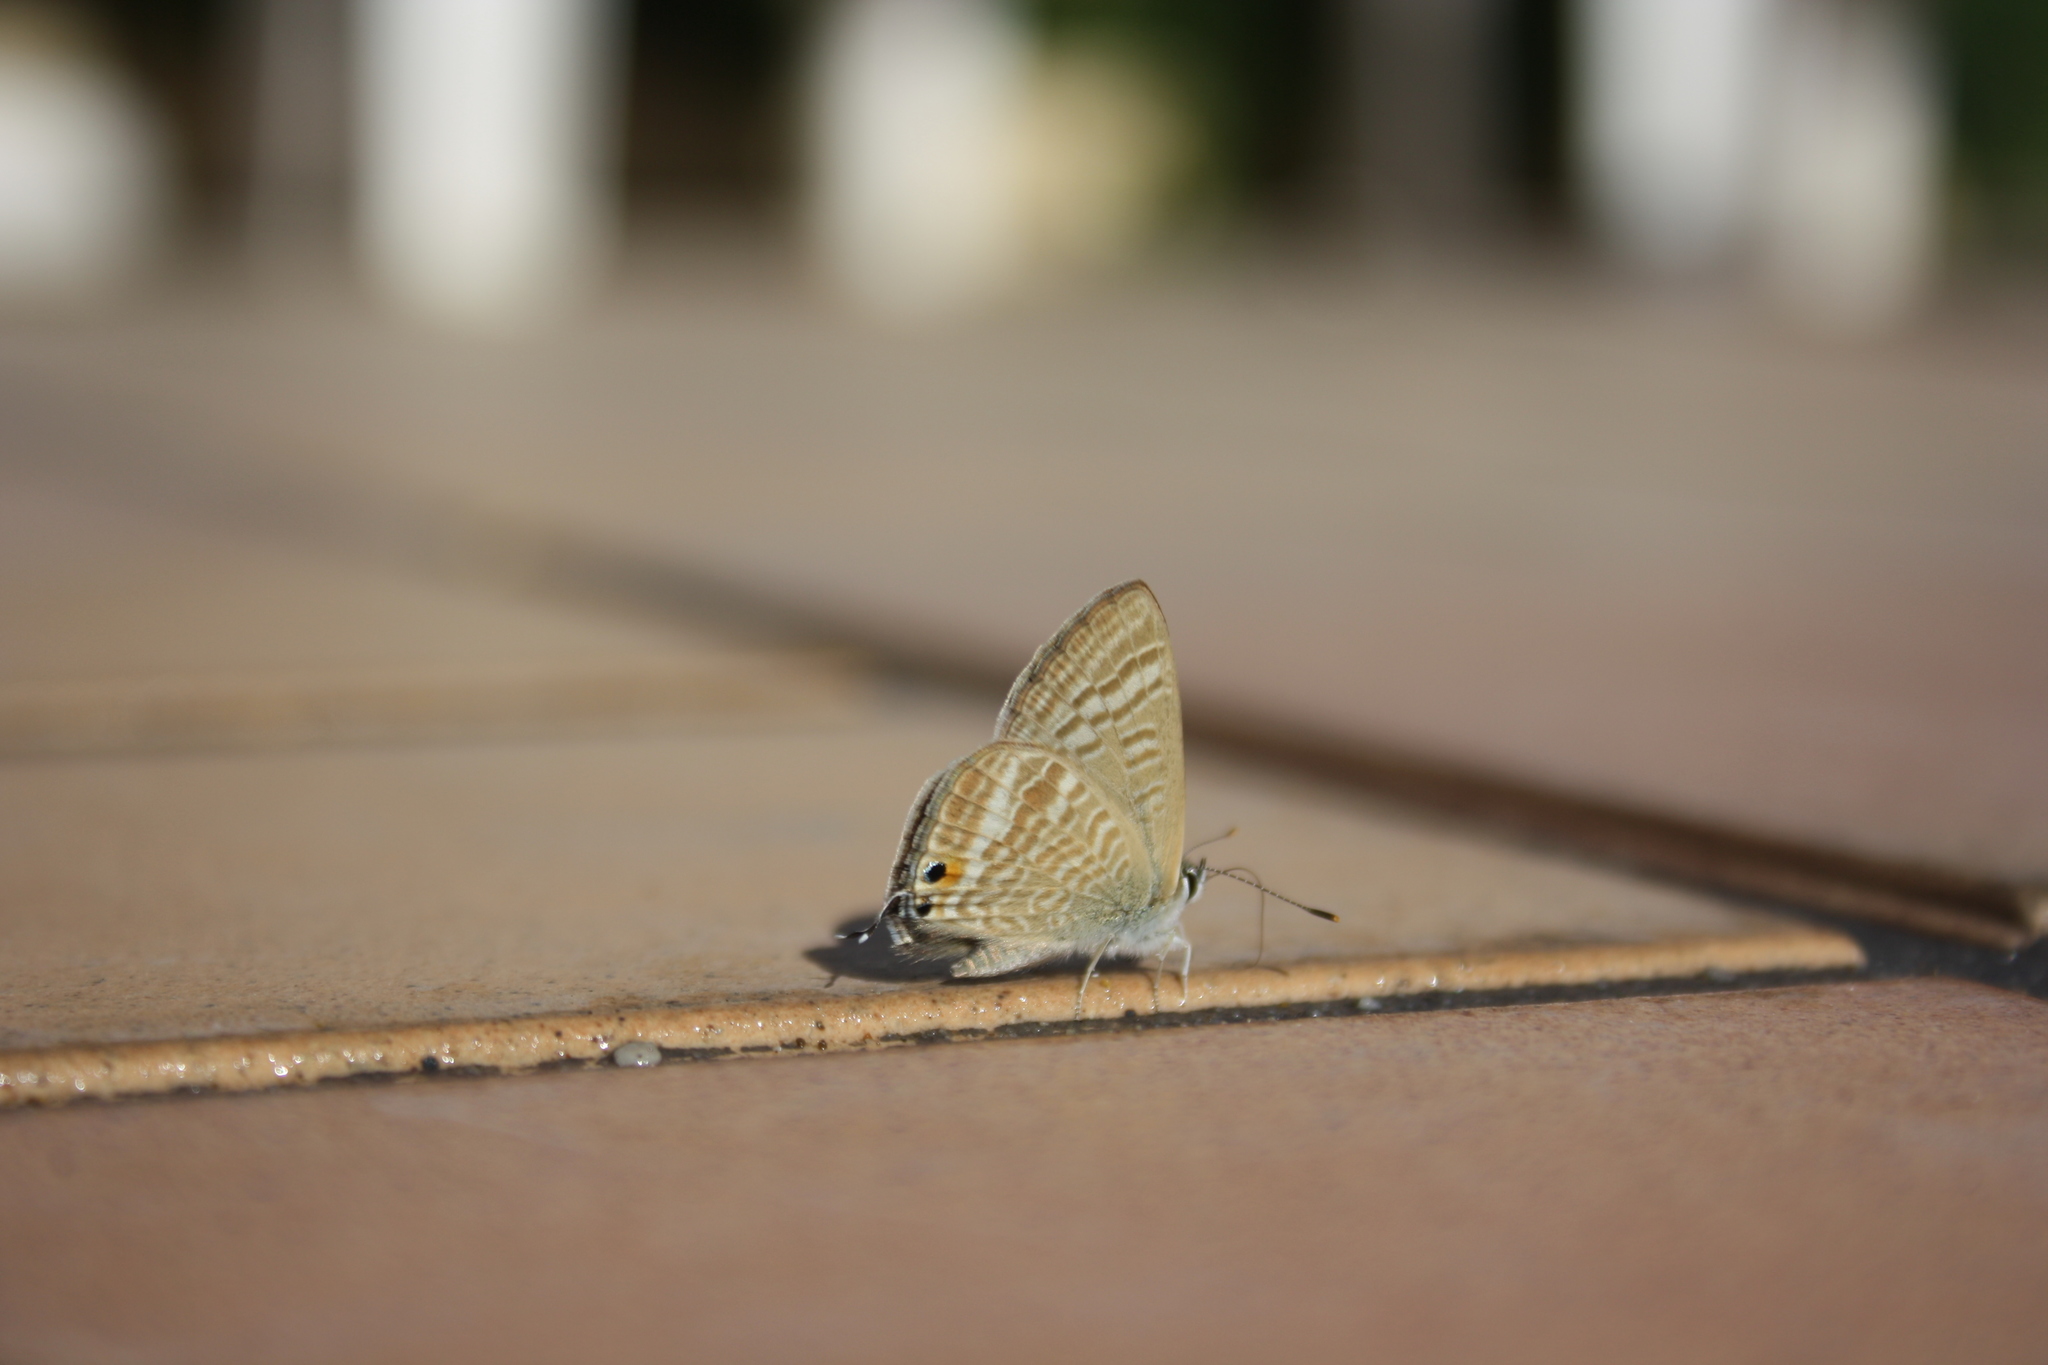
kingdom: Animalia
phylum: Arthropoda
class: Insecta
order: Lepidoptera
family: Lycaenidae
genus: Lampides
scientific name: Lampides boeticus
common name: Long-tailed blue
